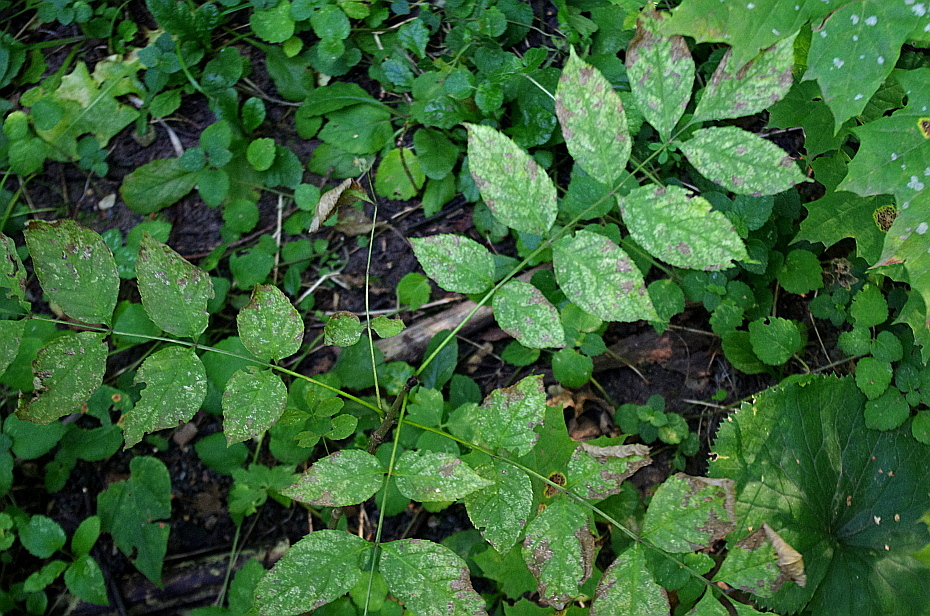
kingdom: Plantae
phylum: Tracheophyta
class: Magnoliopsida
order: Lamiales
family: Oleaceae
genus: Fraxinus
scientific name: Fraxinus excelsior
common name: European ash
